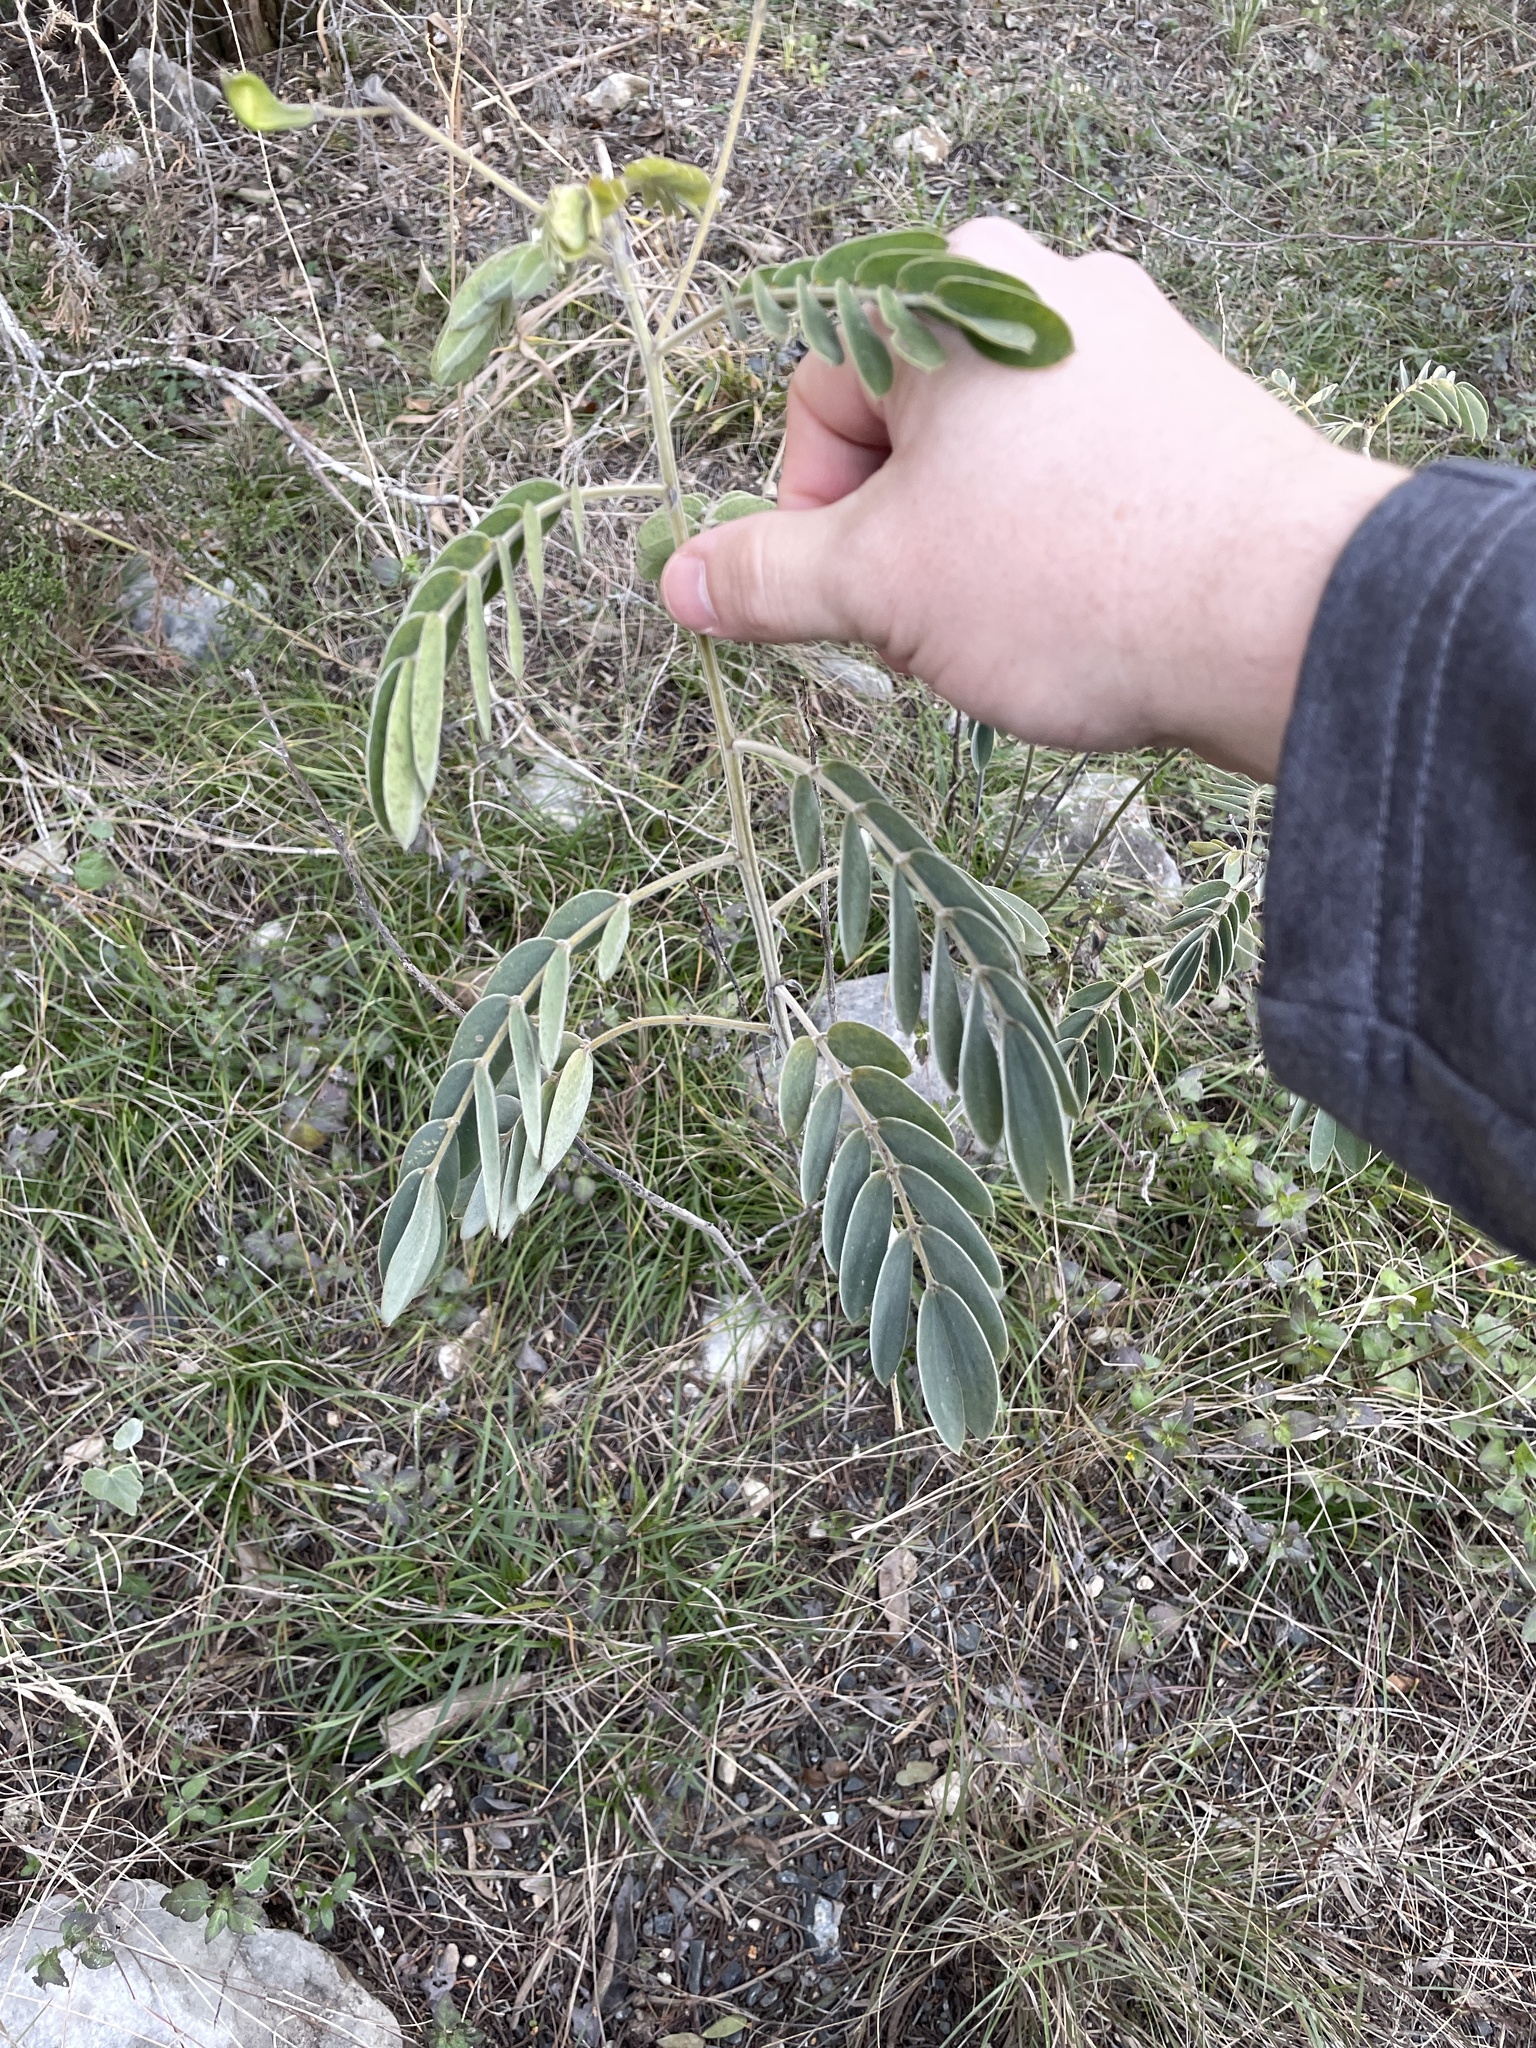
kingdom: Plantae
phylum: Tracheophyta
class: Magnoliopsida
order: Fabales
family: Fabaceae
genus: Senna
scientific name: Senna lindheimeriana
